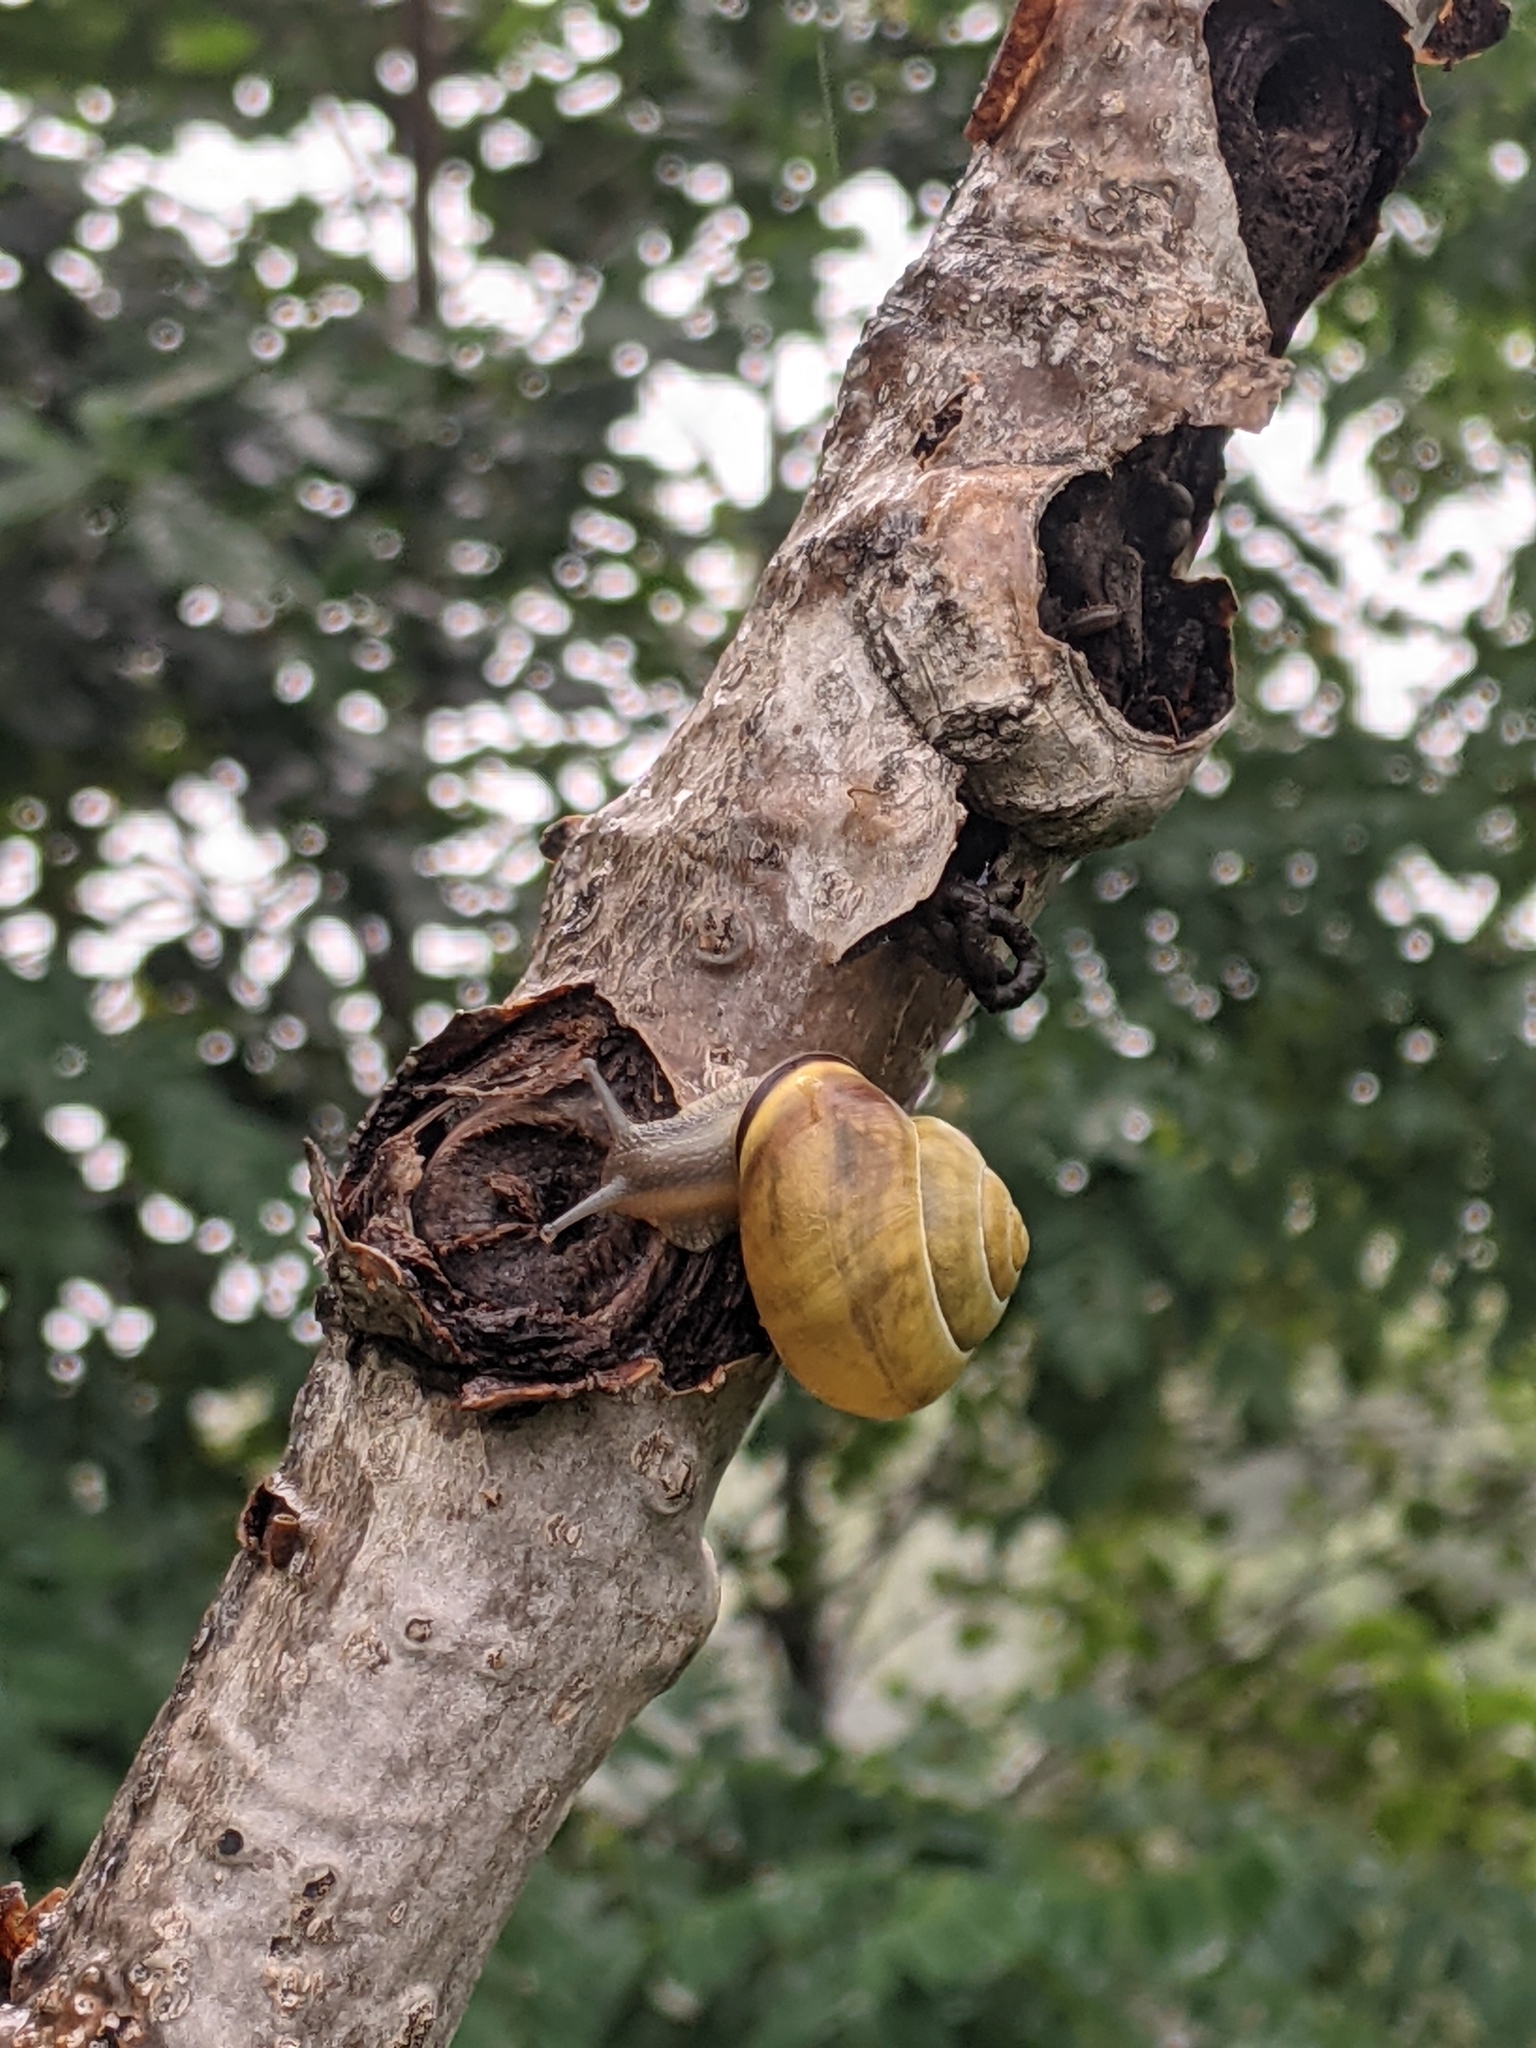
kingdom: Animalia
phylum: Mollusca
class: Gastropoda
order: Stylommatophora
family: Helicidae
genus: Cepaea
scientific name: Cepaea nemoralis
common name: Grovesnail
